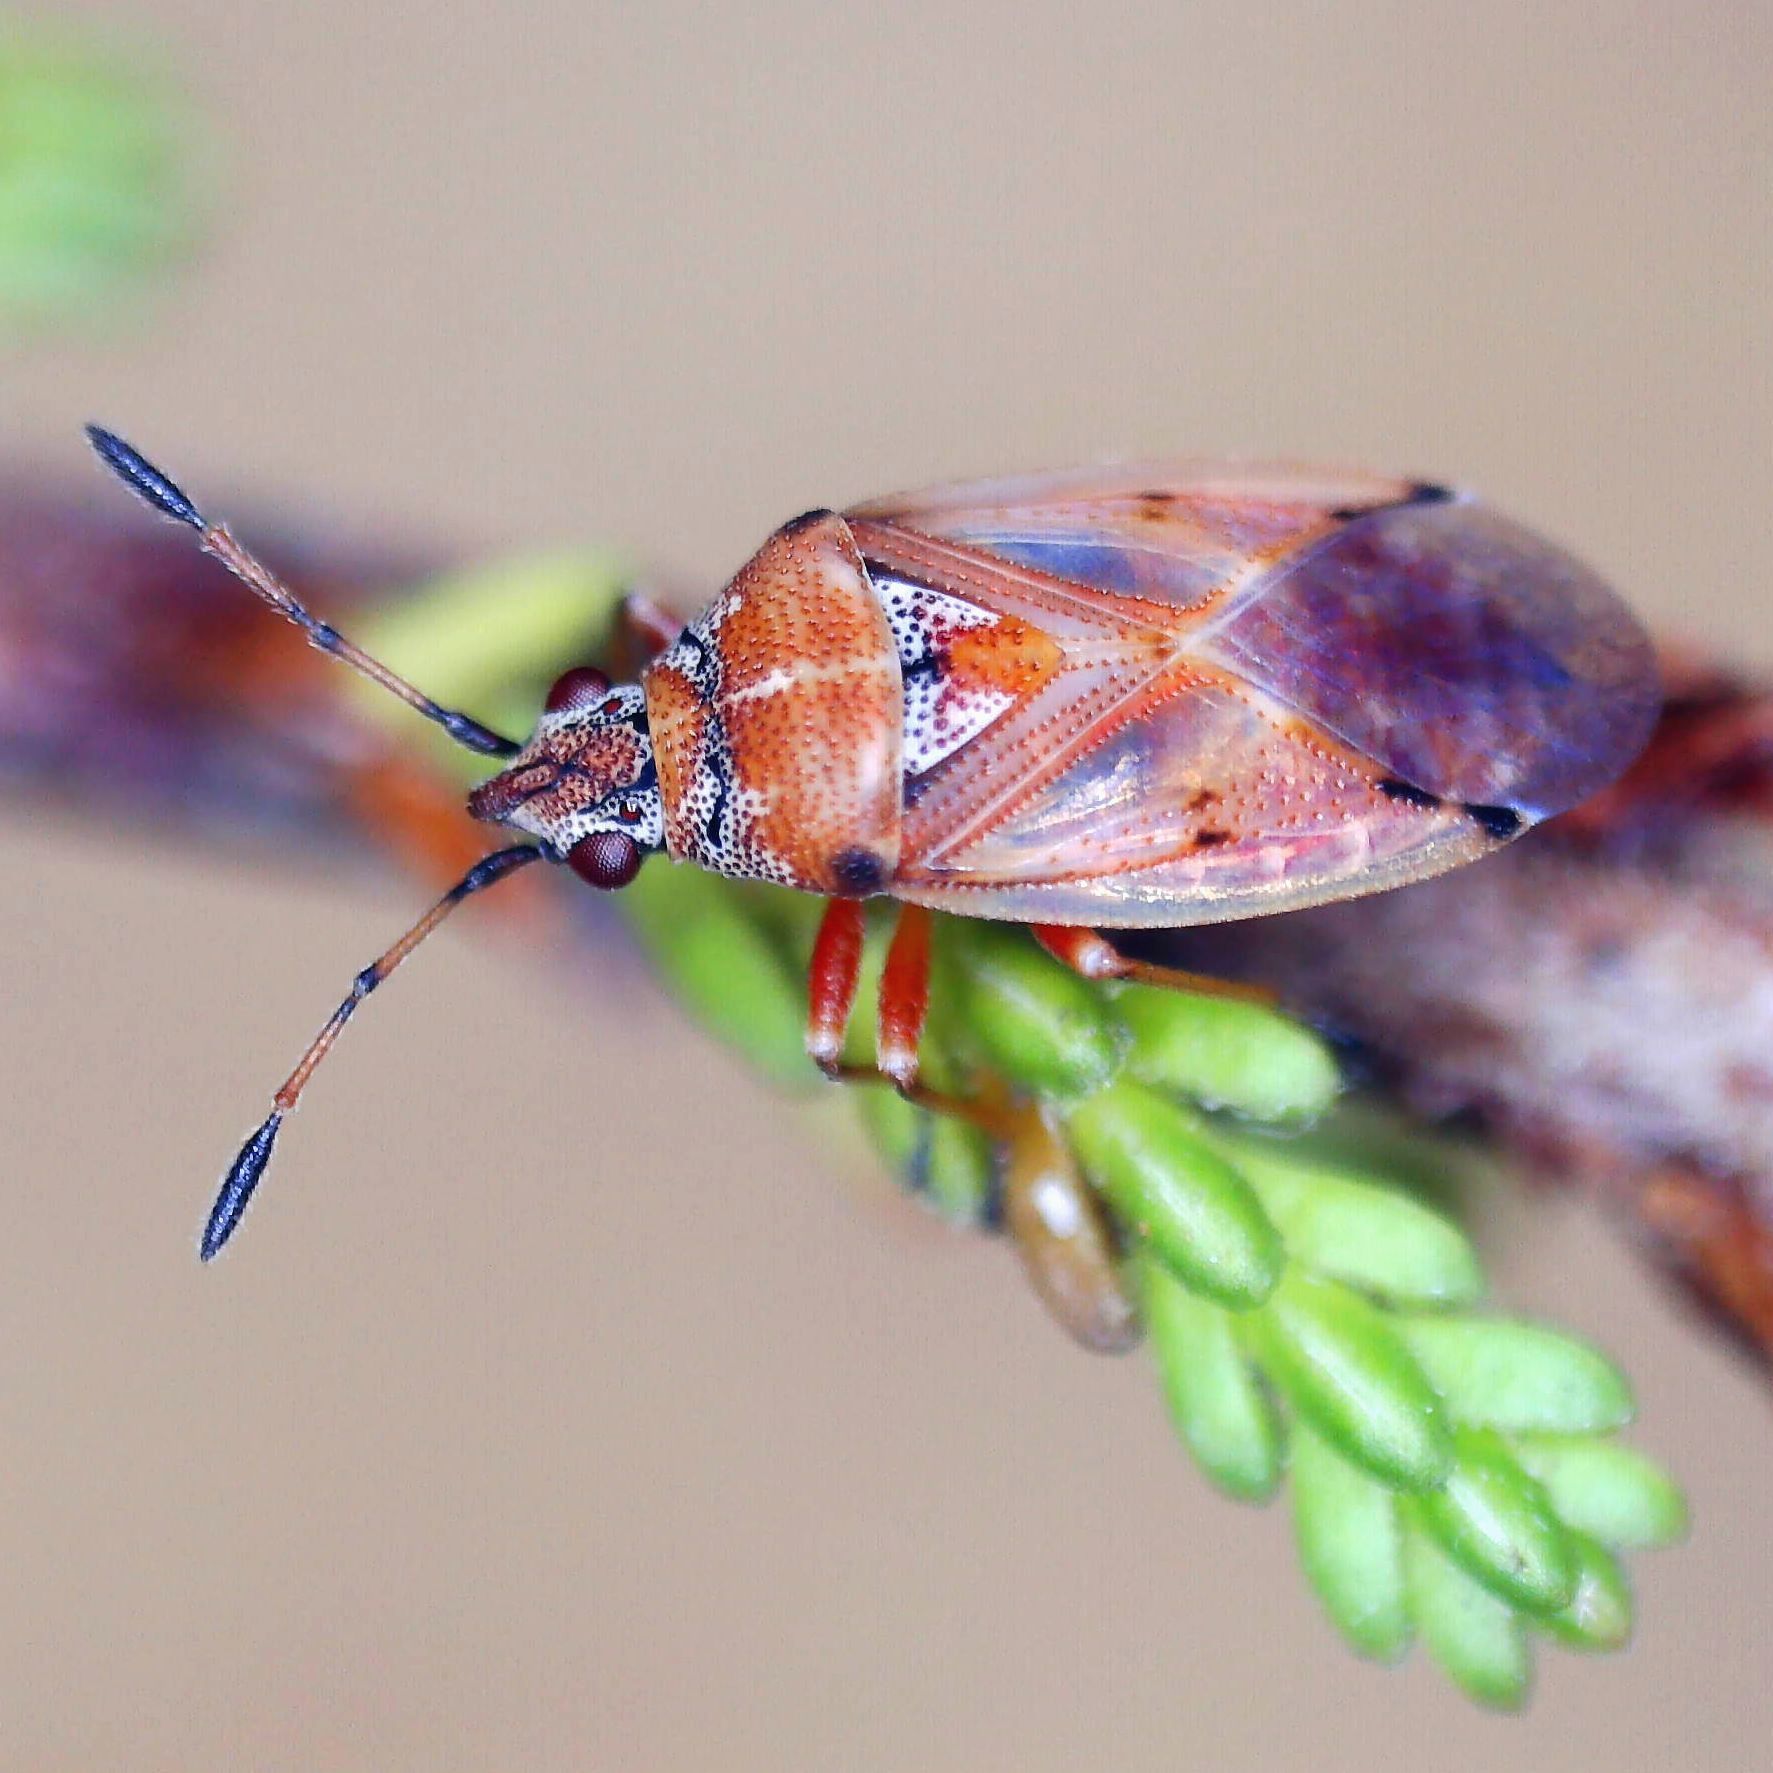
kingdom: Animalia
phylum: Arthropoda
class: Insecta
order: Hemiptera
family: Lygaeidae
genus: Kleidocerys
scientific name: Kleidocerys ericae
